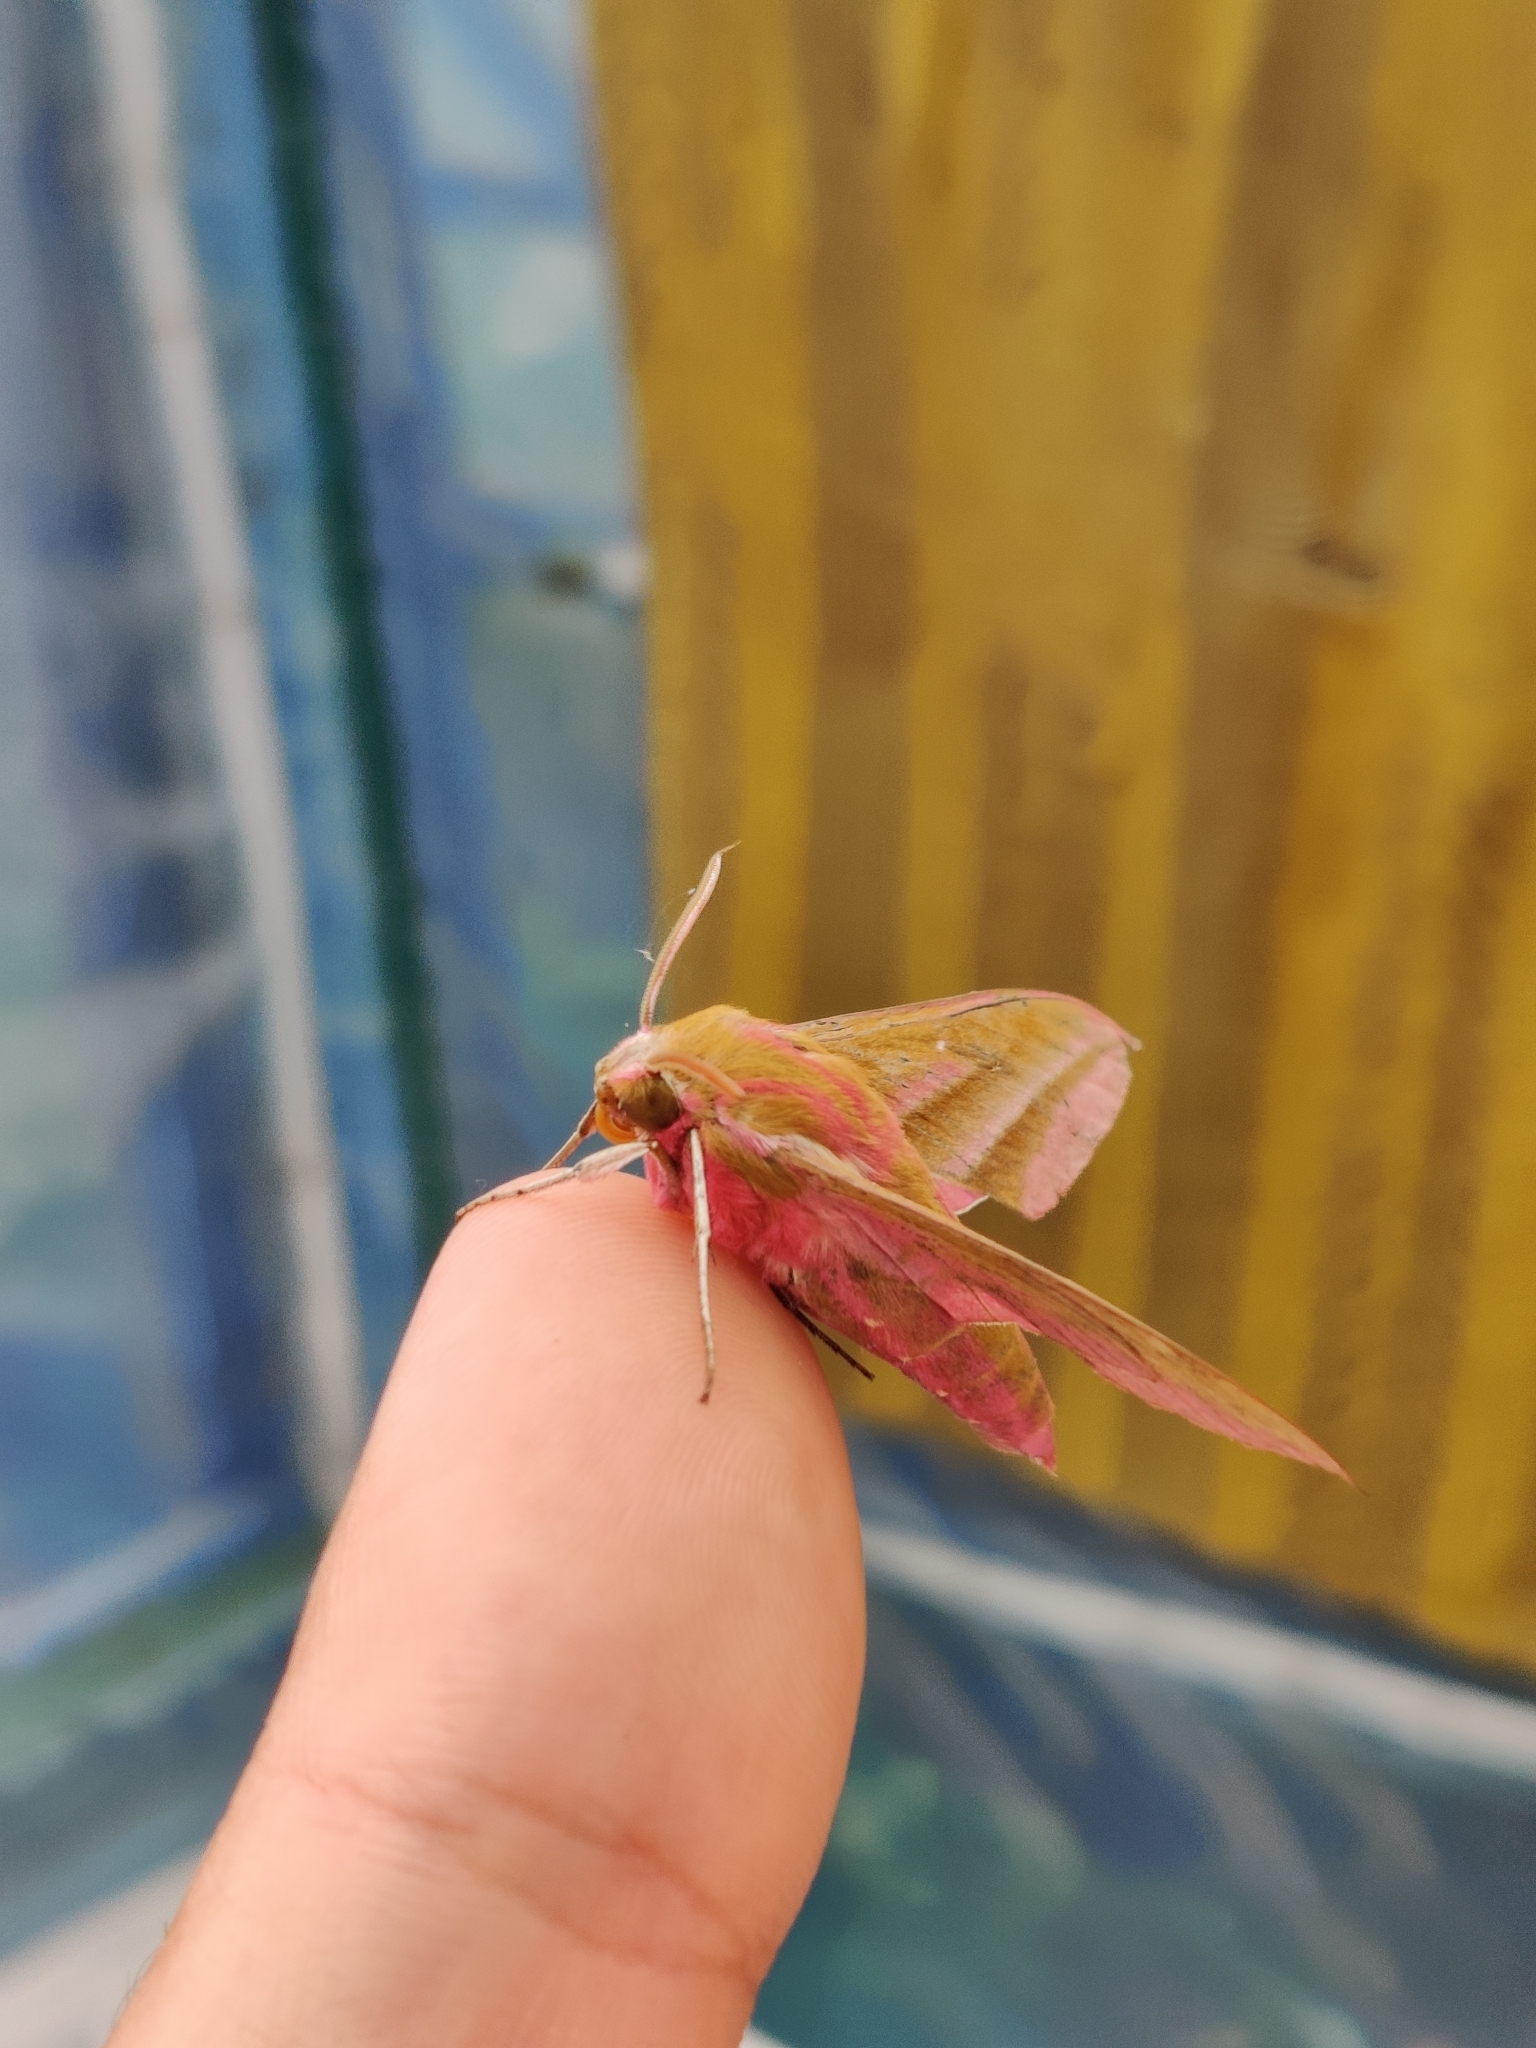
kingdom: Animalia
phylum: Arthropoda
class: Insecta
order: Lepidoptera
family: Sphingidae
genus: Deilephila
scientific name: Deilephila elpenor
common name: Elephant hawk-moth
